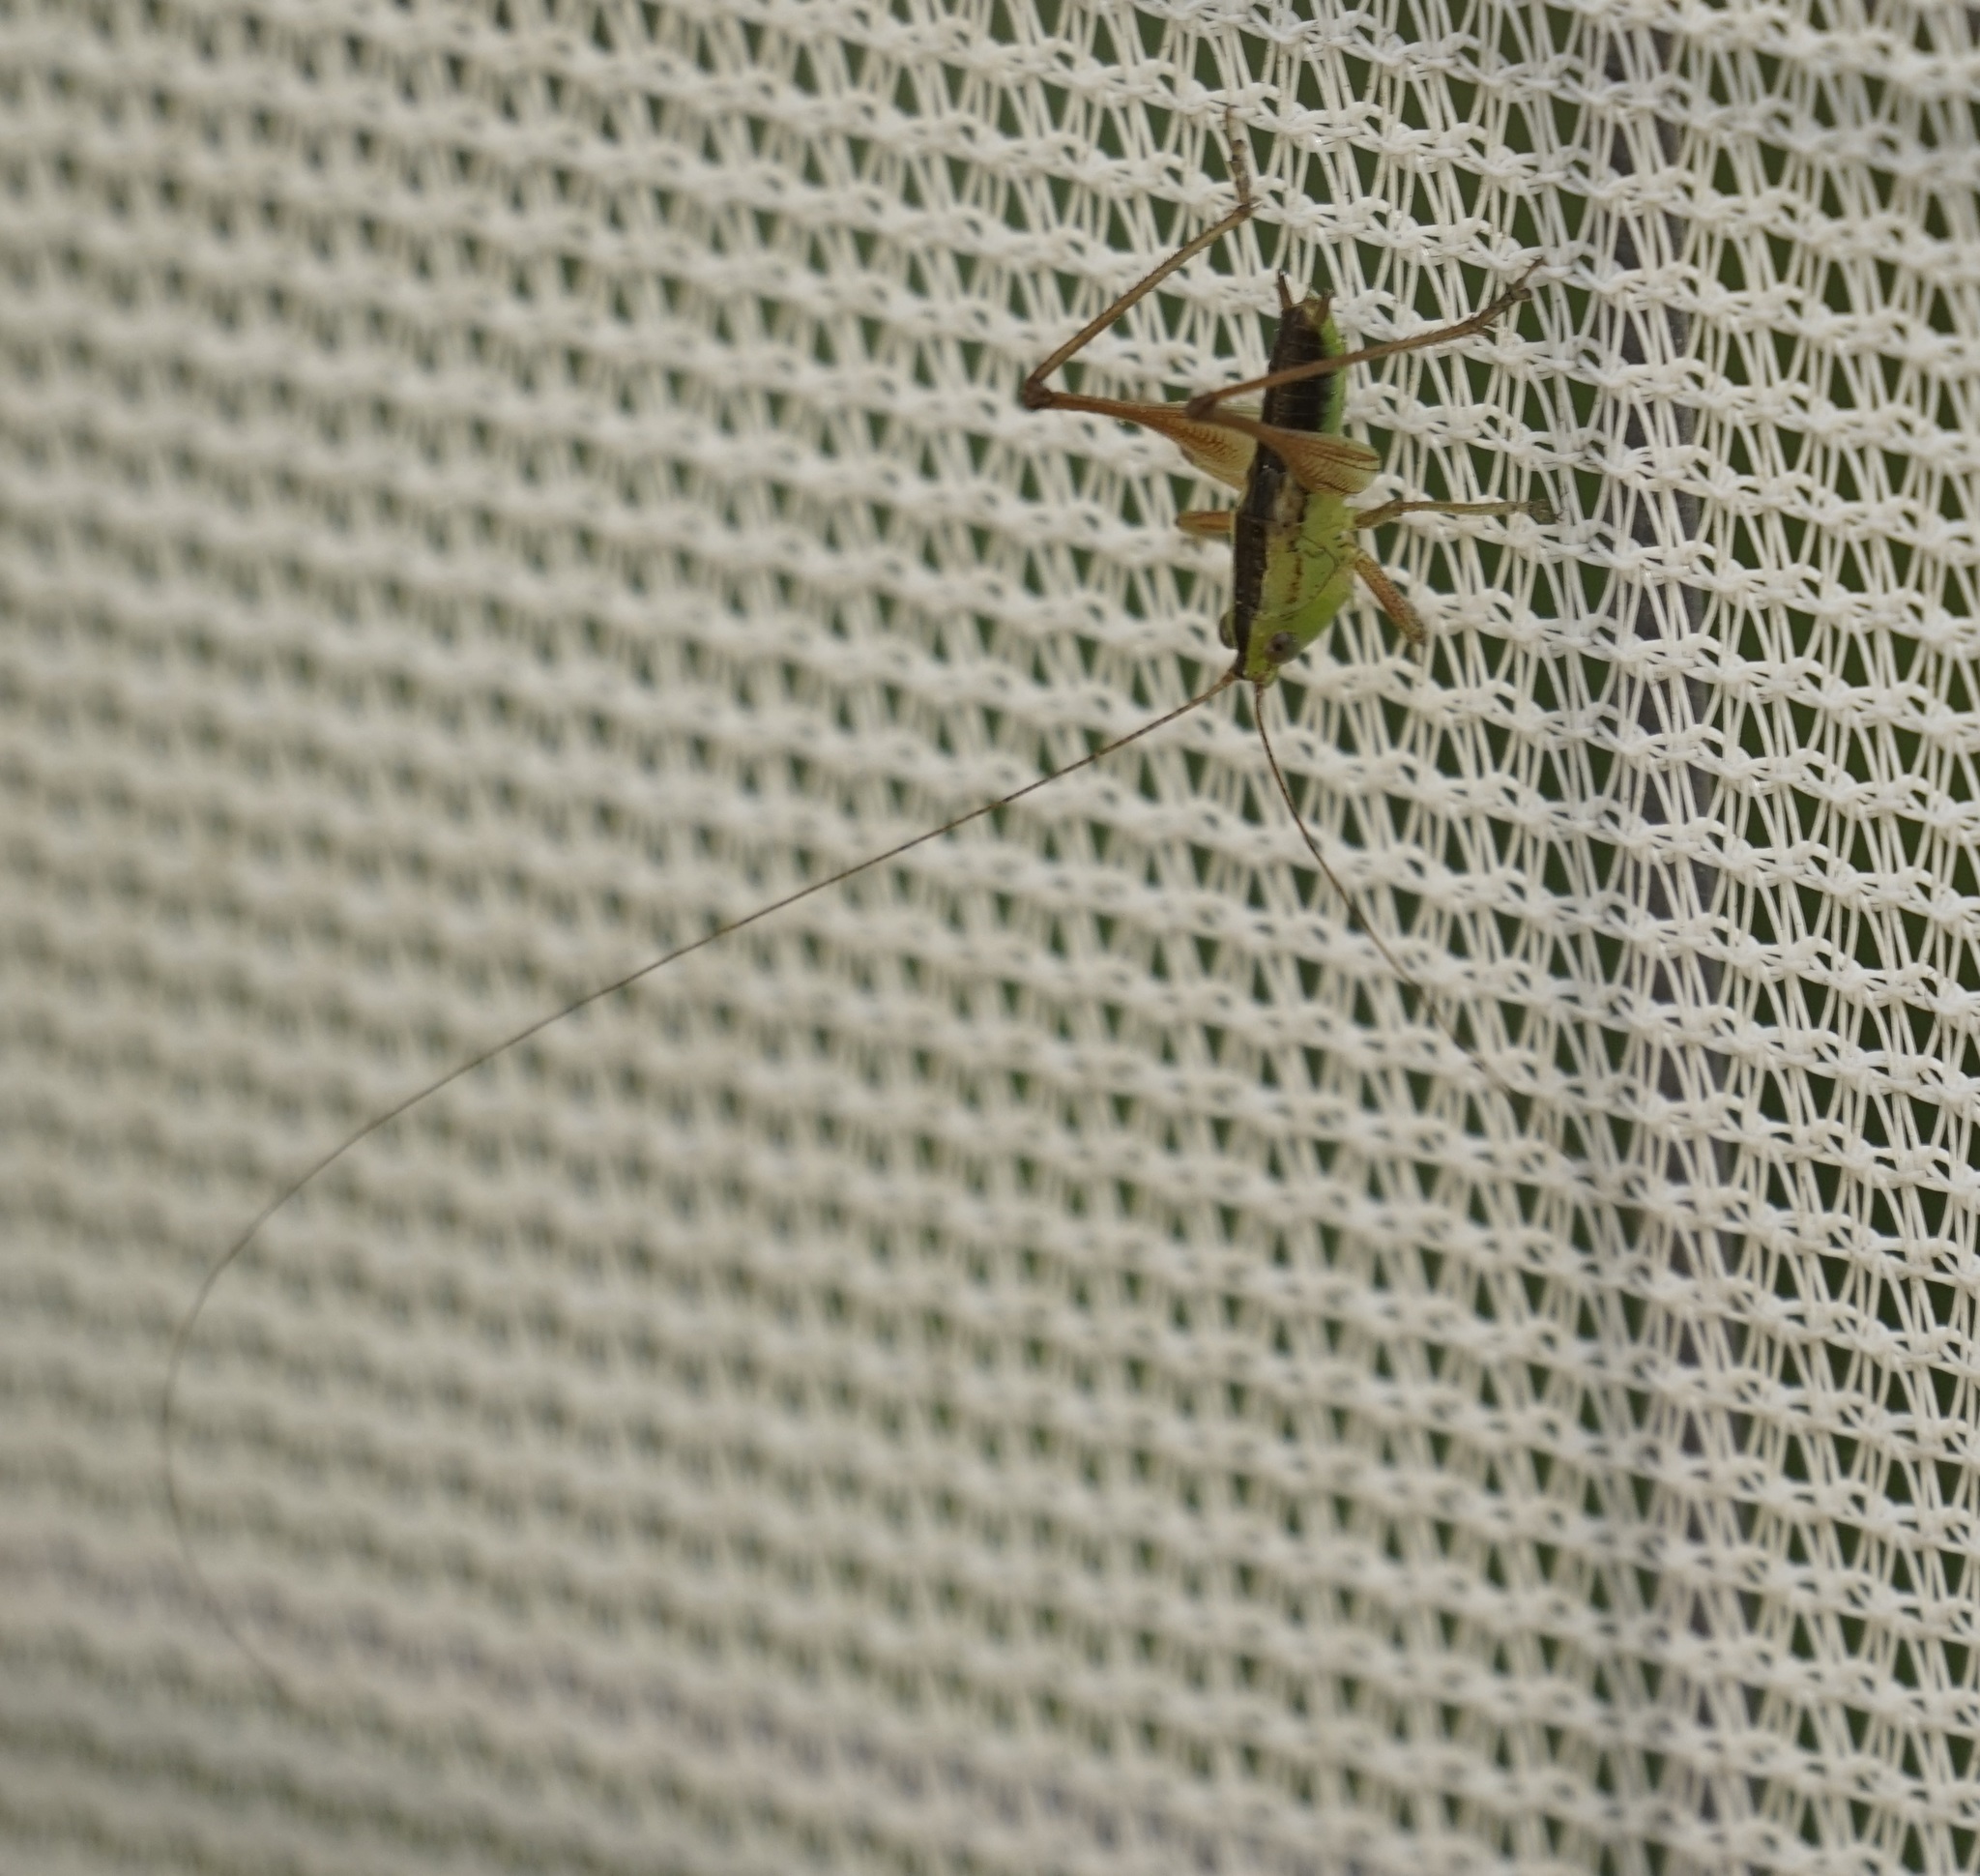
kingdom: Animalia
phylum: Arthropoda
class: Insecta
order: Orthoptera
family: Tettigoniidae
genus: Conocephalus
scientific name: Conocephalus semivittatus
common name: Blackish meadow katydid
